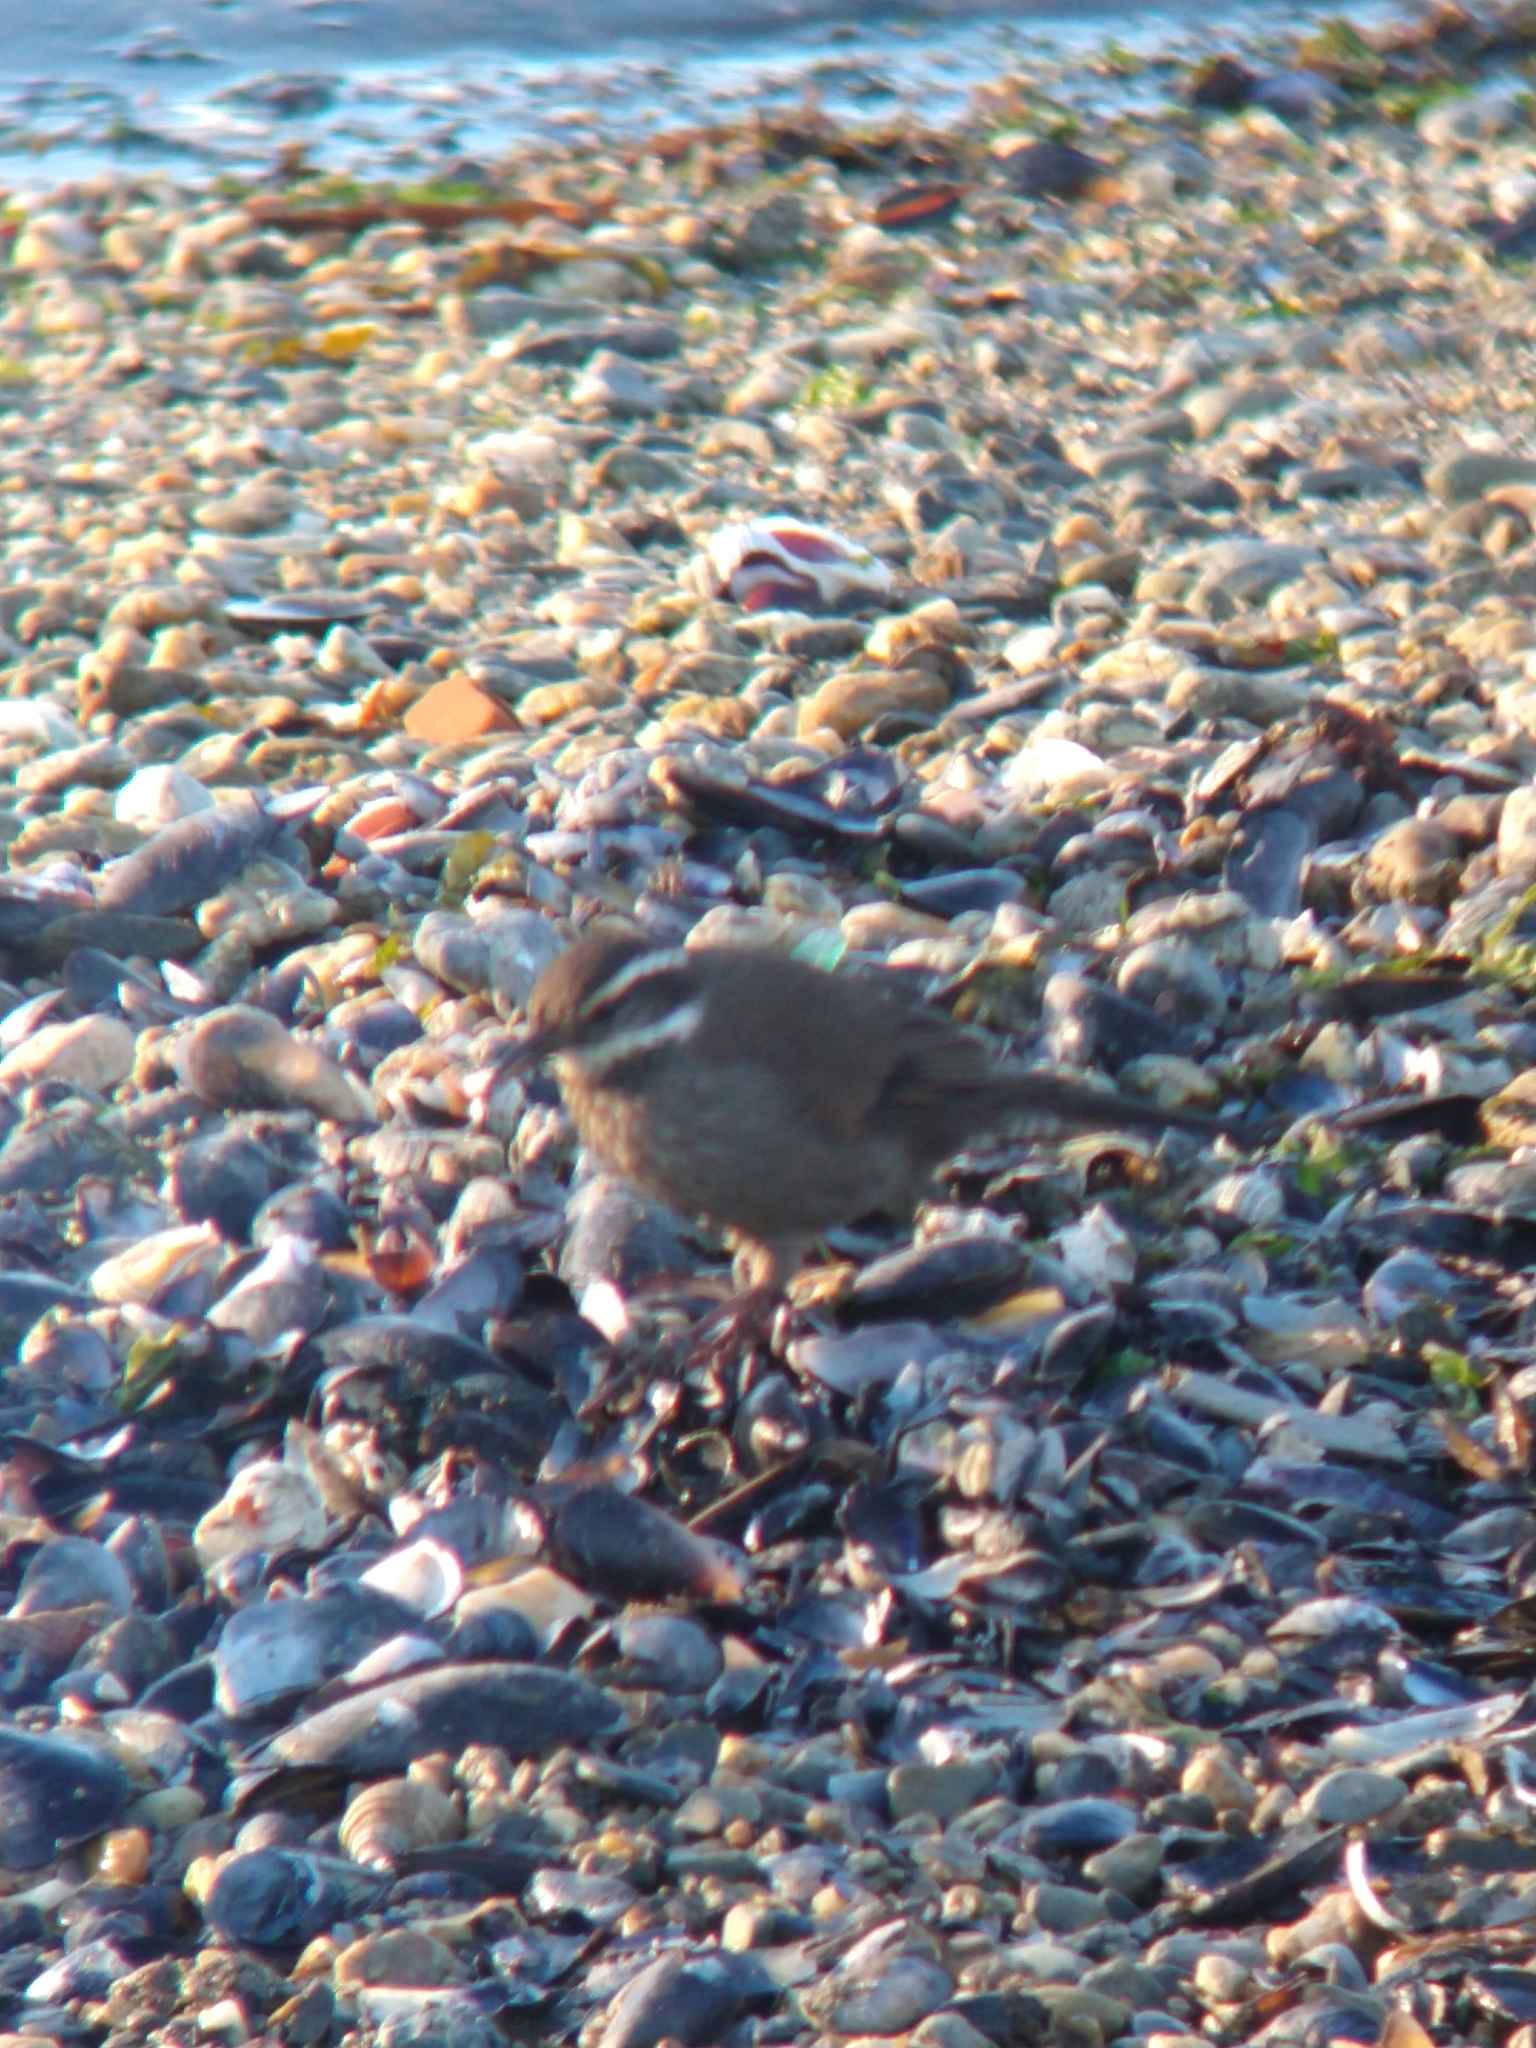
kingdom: Animalia
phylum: Chordata
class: Aves
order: Passeriformes
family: Furnariidae
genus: Cinclodes
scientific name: Cinclodes patagonicus
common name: Dark-bellied cinclodes
